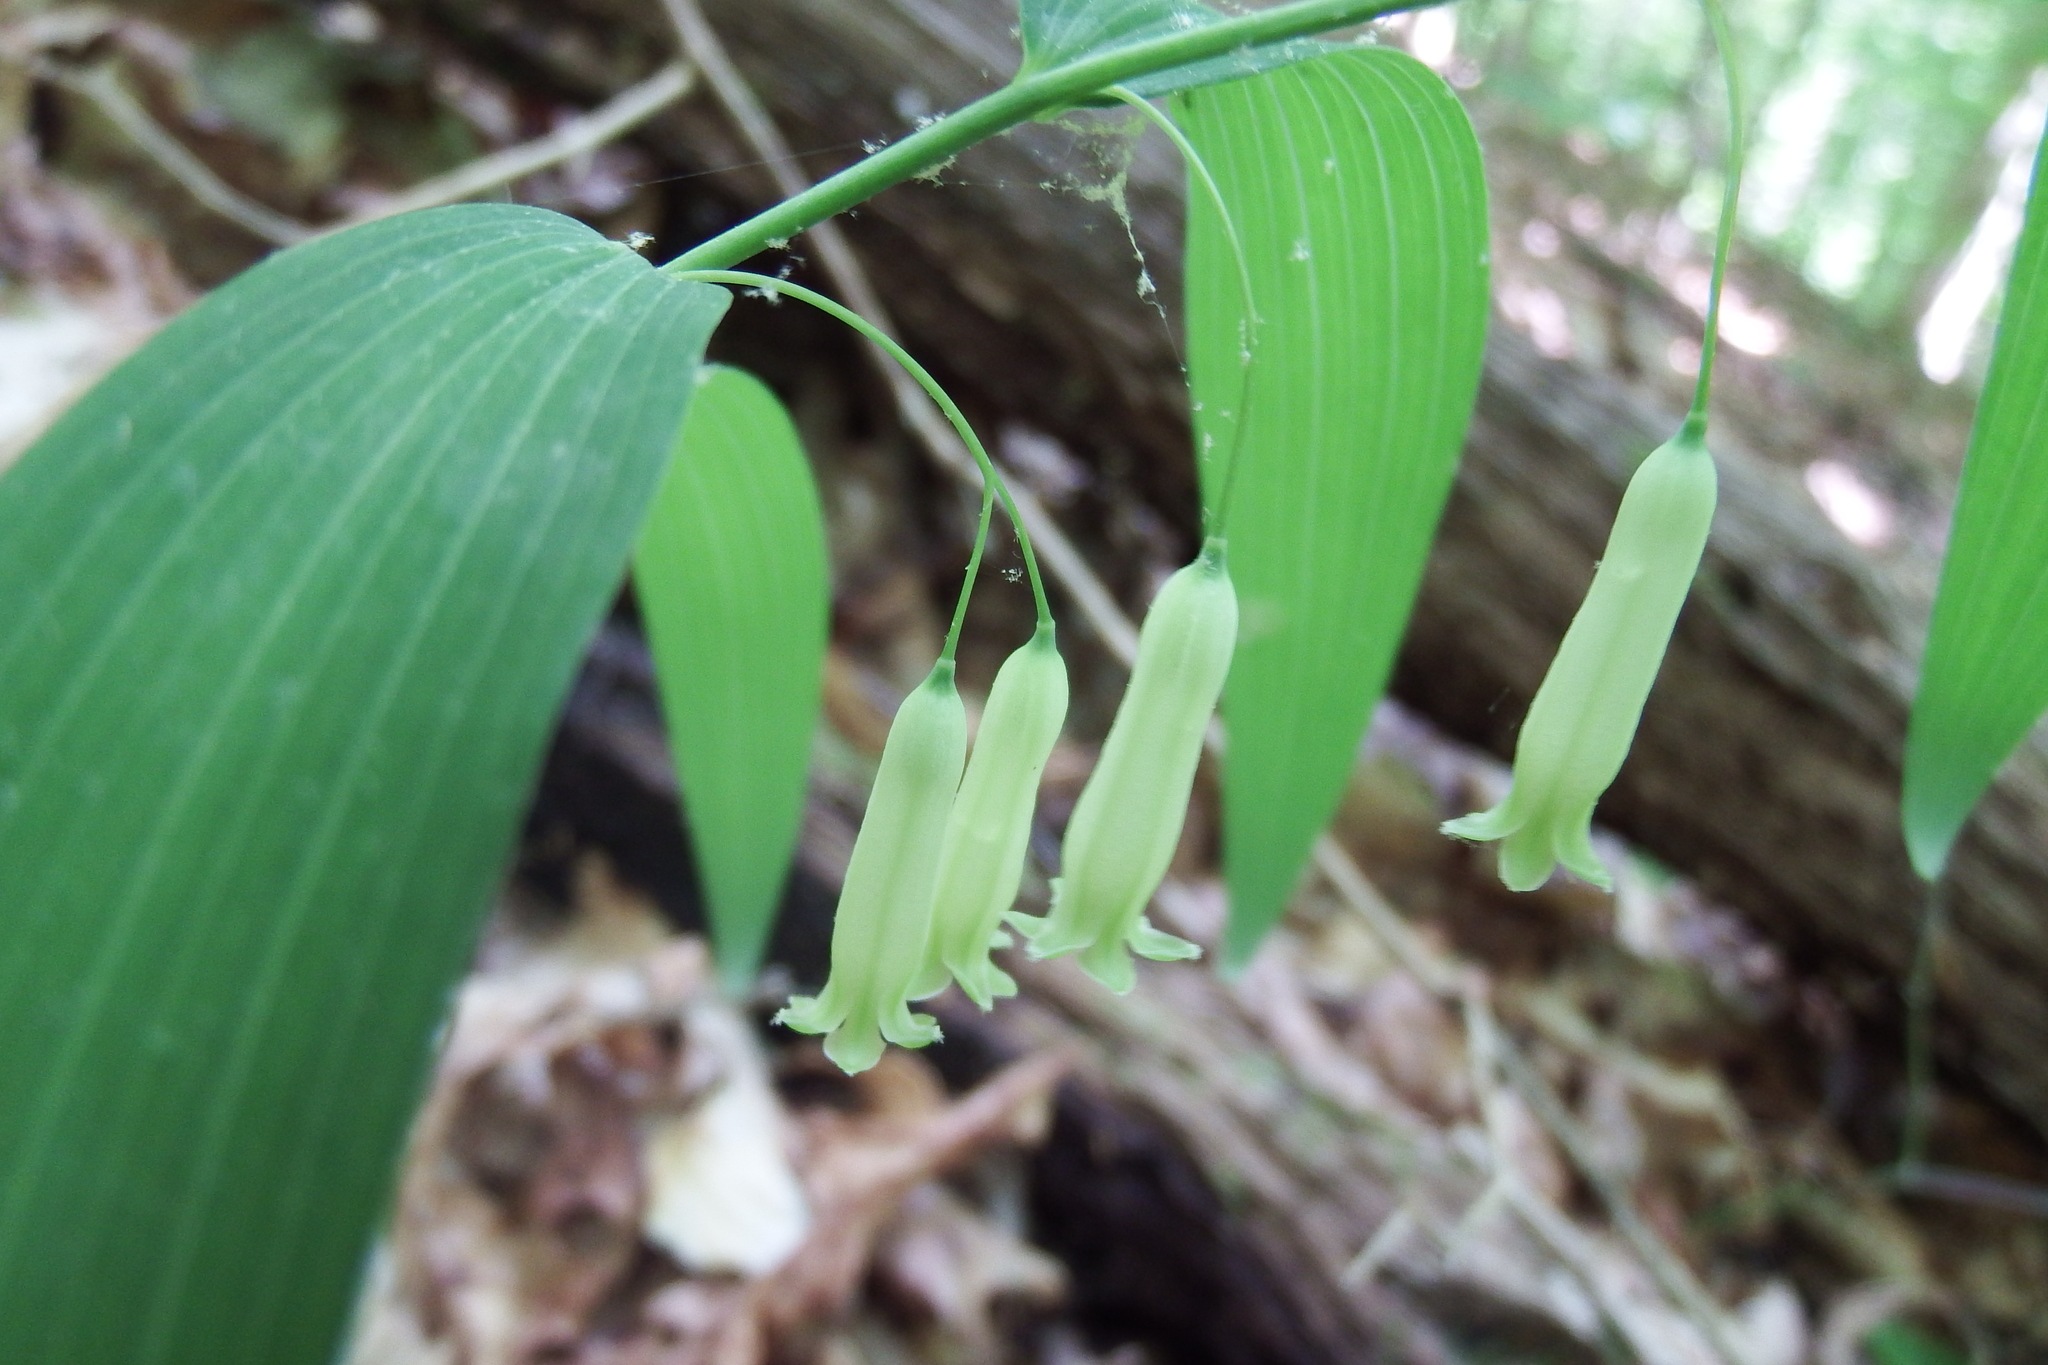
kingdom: Plantae
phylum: Tracheophyta
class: Liliopsida
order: Asparagales
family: Asparagaceae
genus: Polygonatum
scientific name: Polygonatum biflorum
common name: American solomon's-seal
